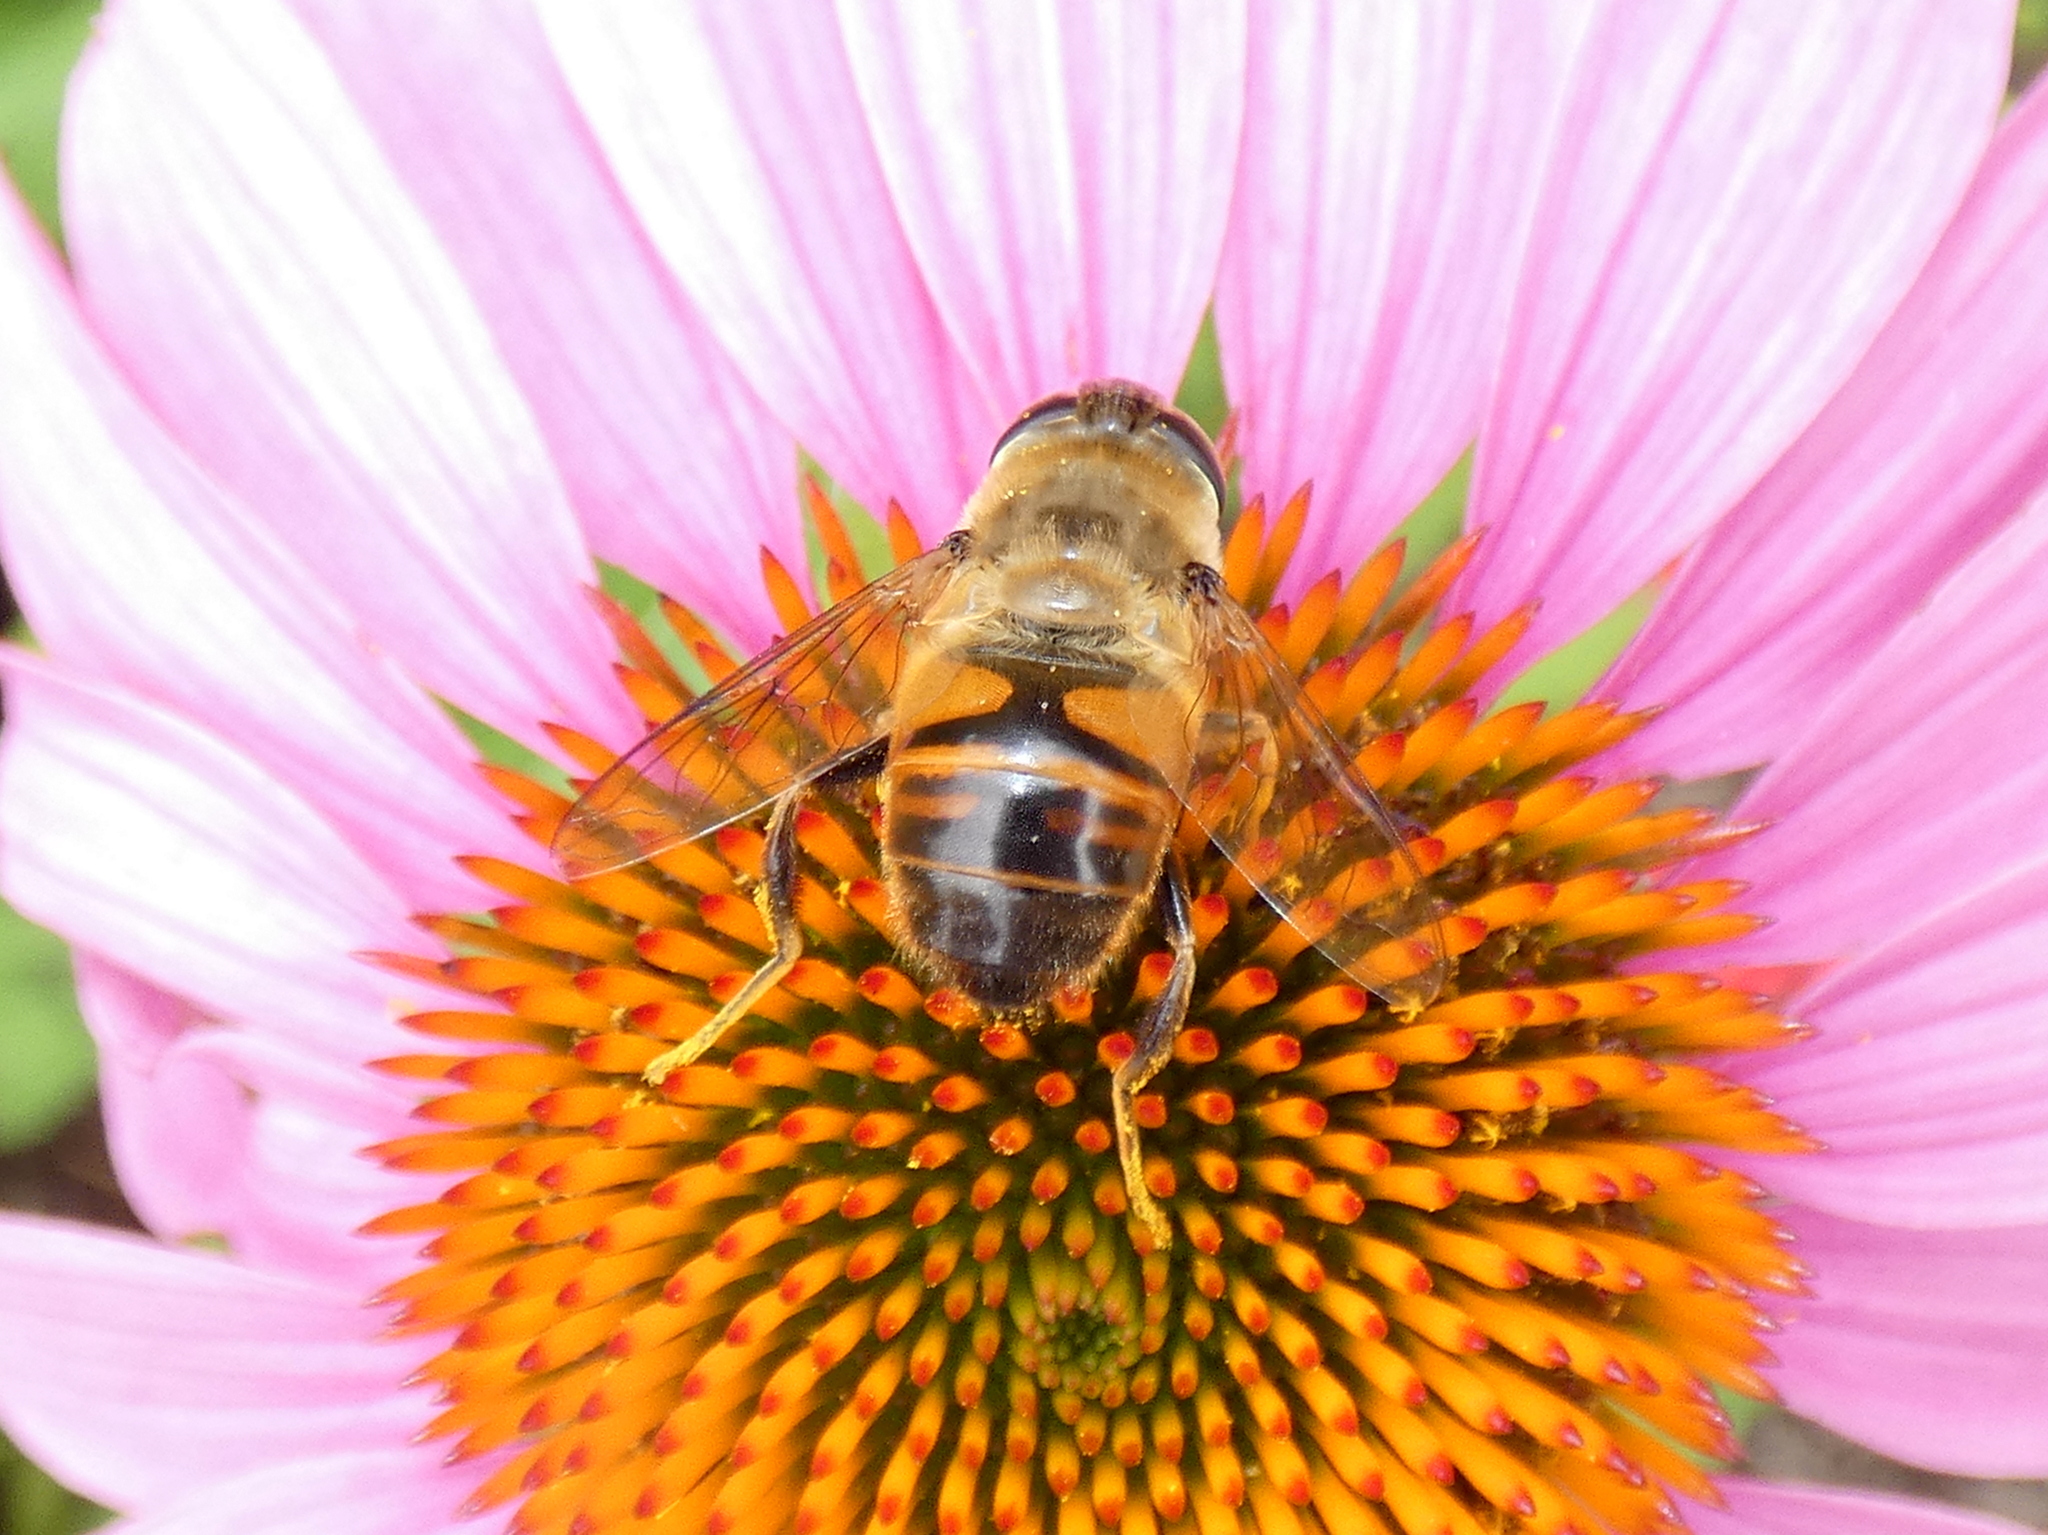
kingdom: Animalia
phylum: Arthropoda
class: Insecta
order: Diptera
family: Syrphidae
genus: Eristalis
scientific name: Eristalis tenax
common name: Drone fly
